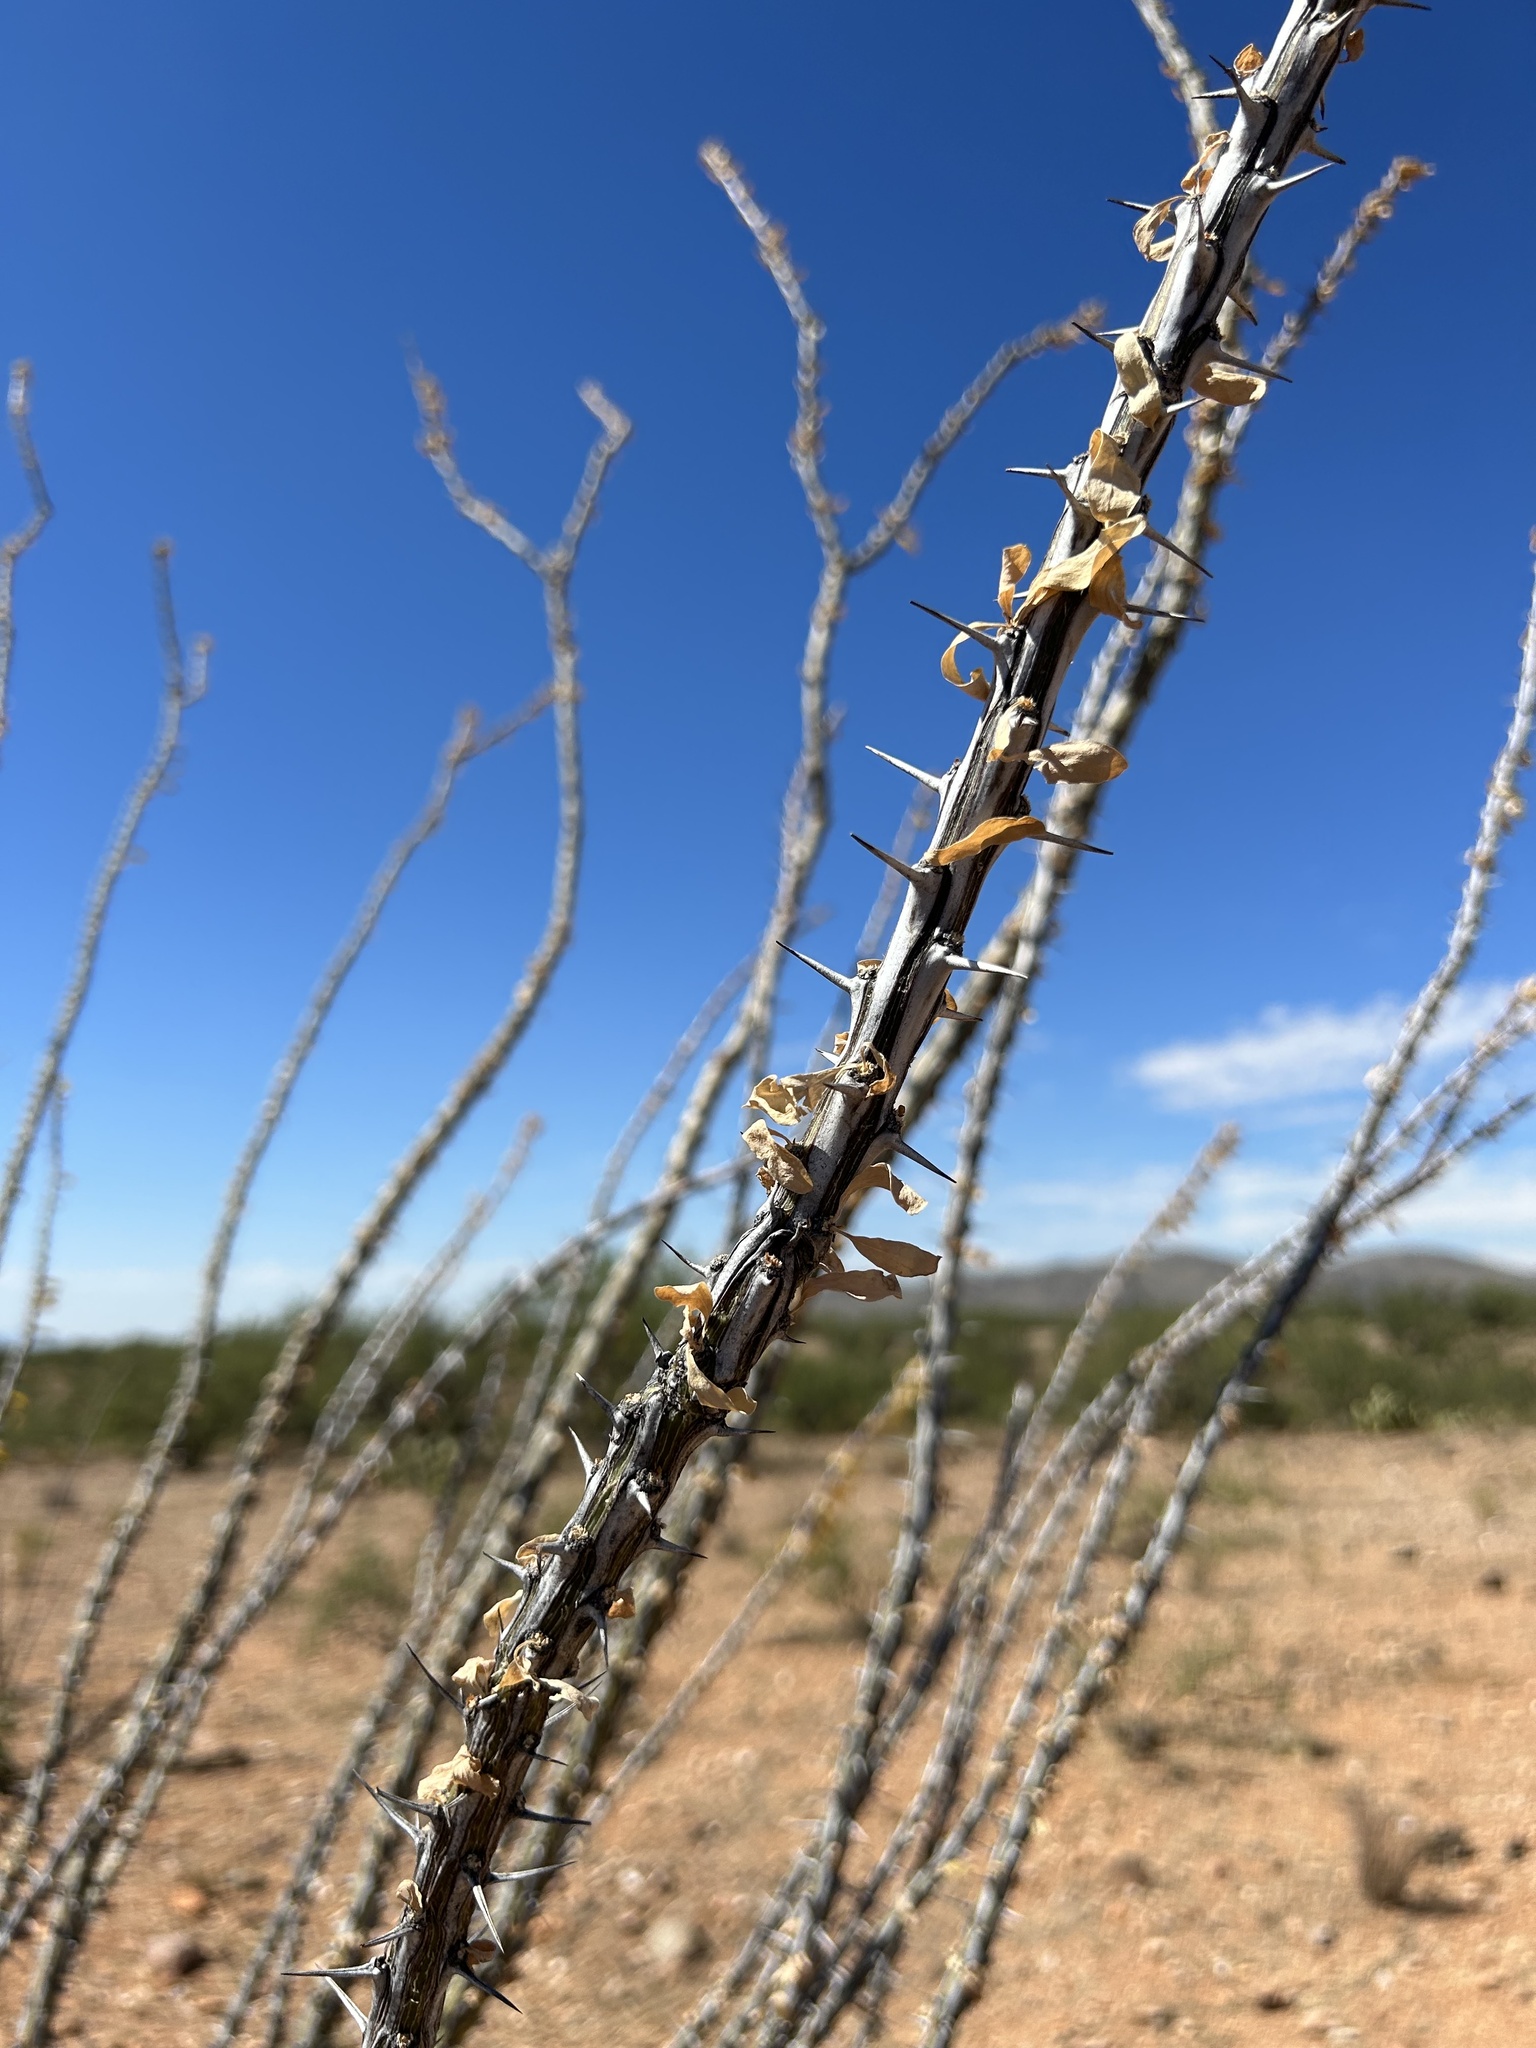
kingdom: Plantae
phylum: Tracheophyta
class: Magnoliopsida
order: Ericales
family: Fouquieriaceae
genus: Fouquieria
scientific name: Fouquieria splendens
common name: Vine-cactus
